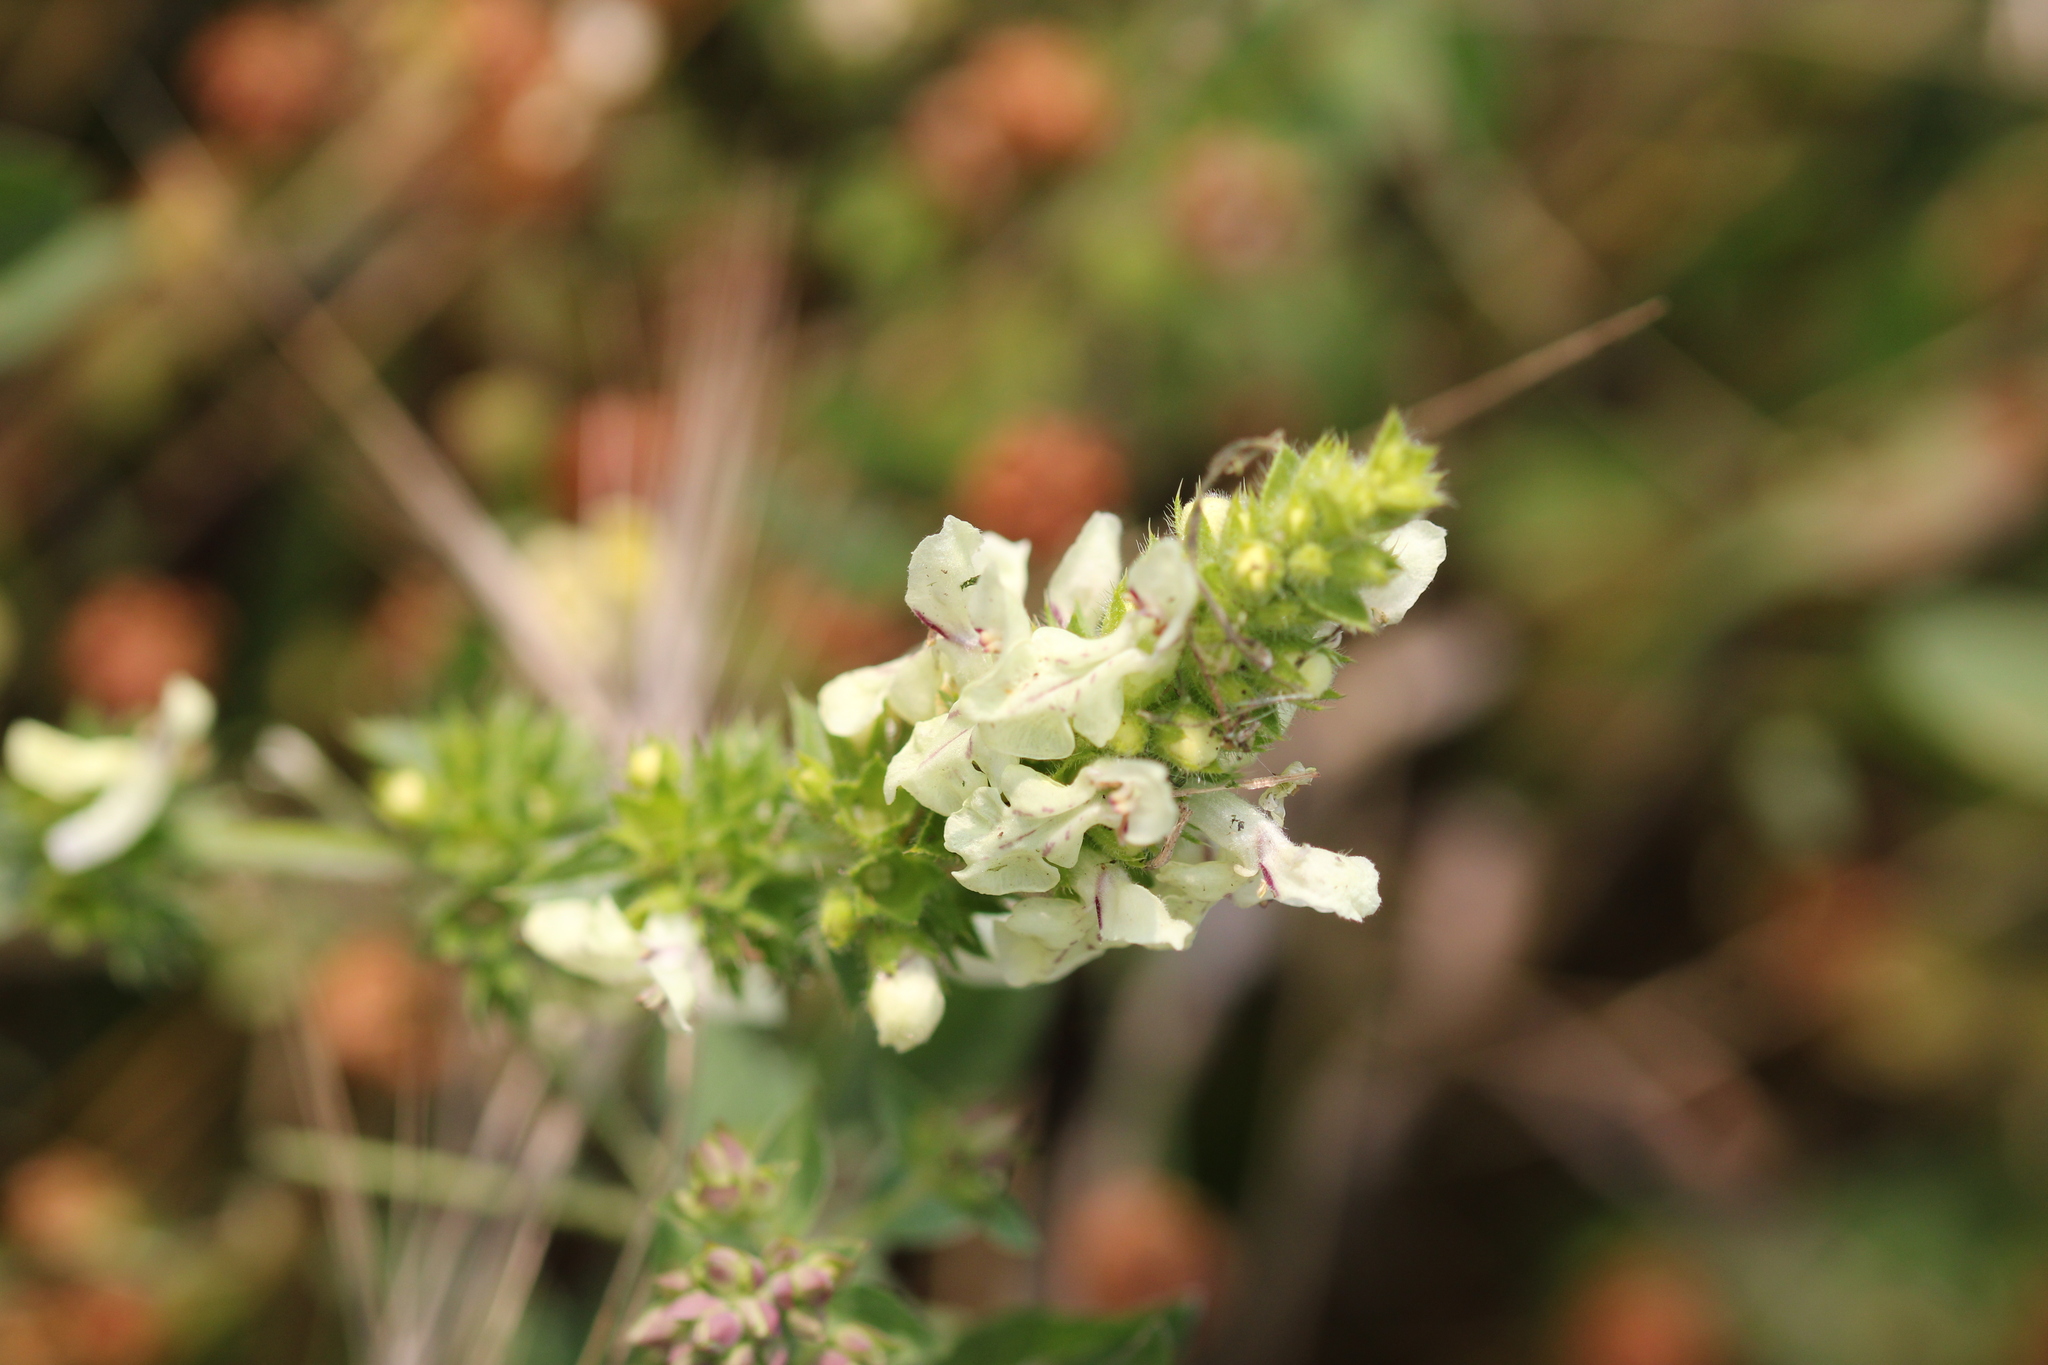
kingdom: Plantae
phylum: Tracheophyta
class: Magnoliopsida
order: Lamiales
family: Lamiaceae
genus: Stachys
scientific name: Stachys recta
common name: Perennial yellow-woundwort
